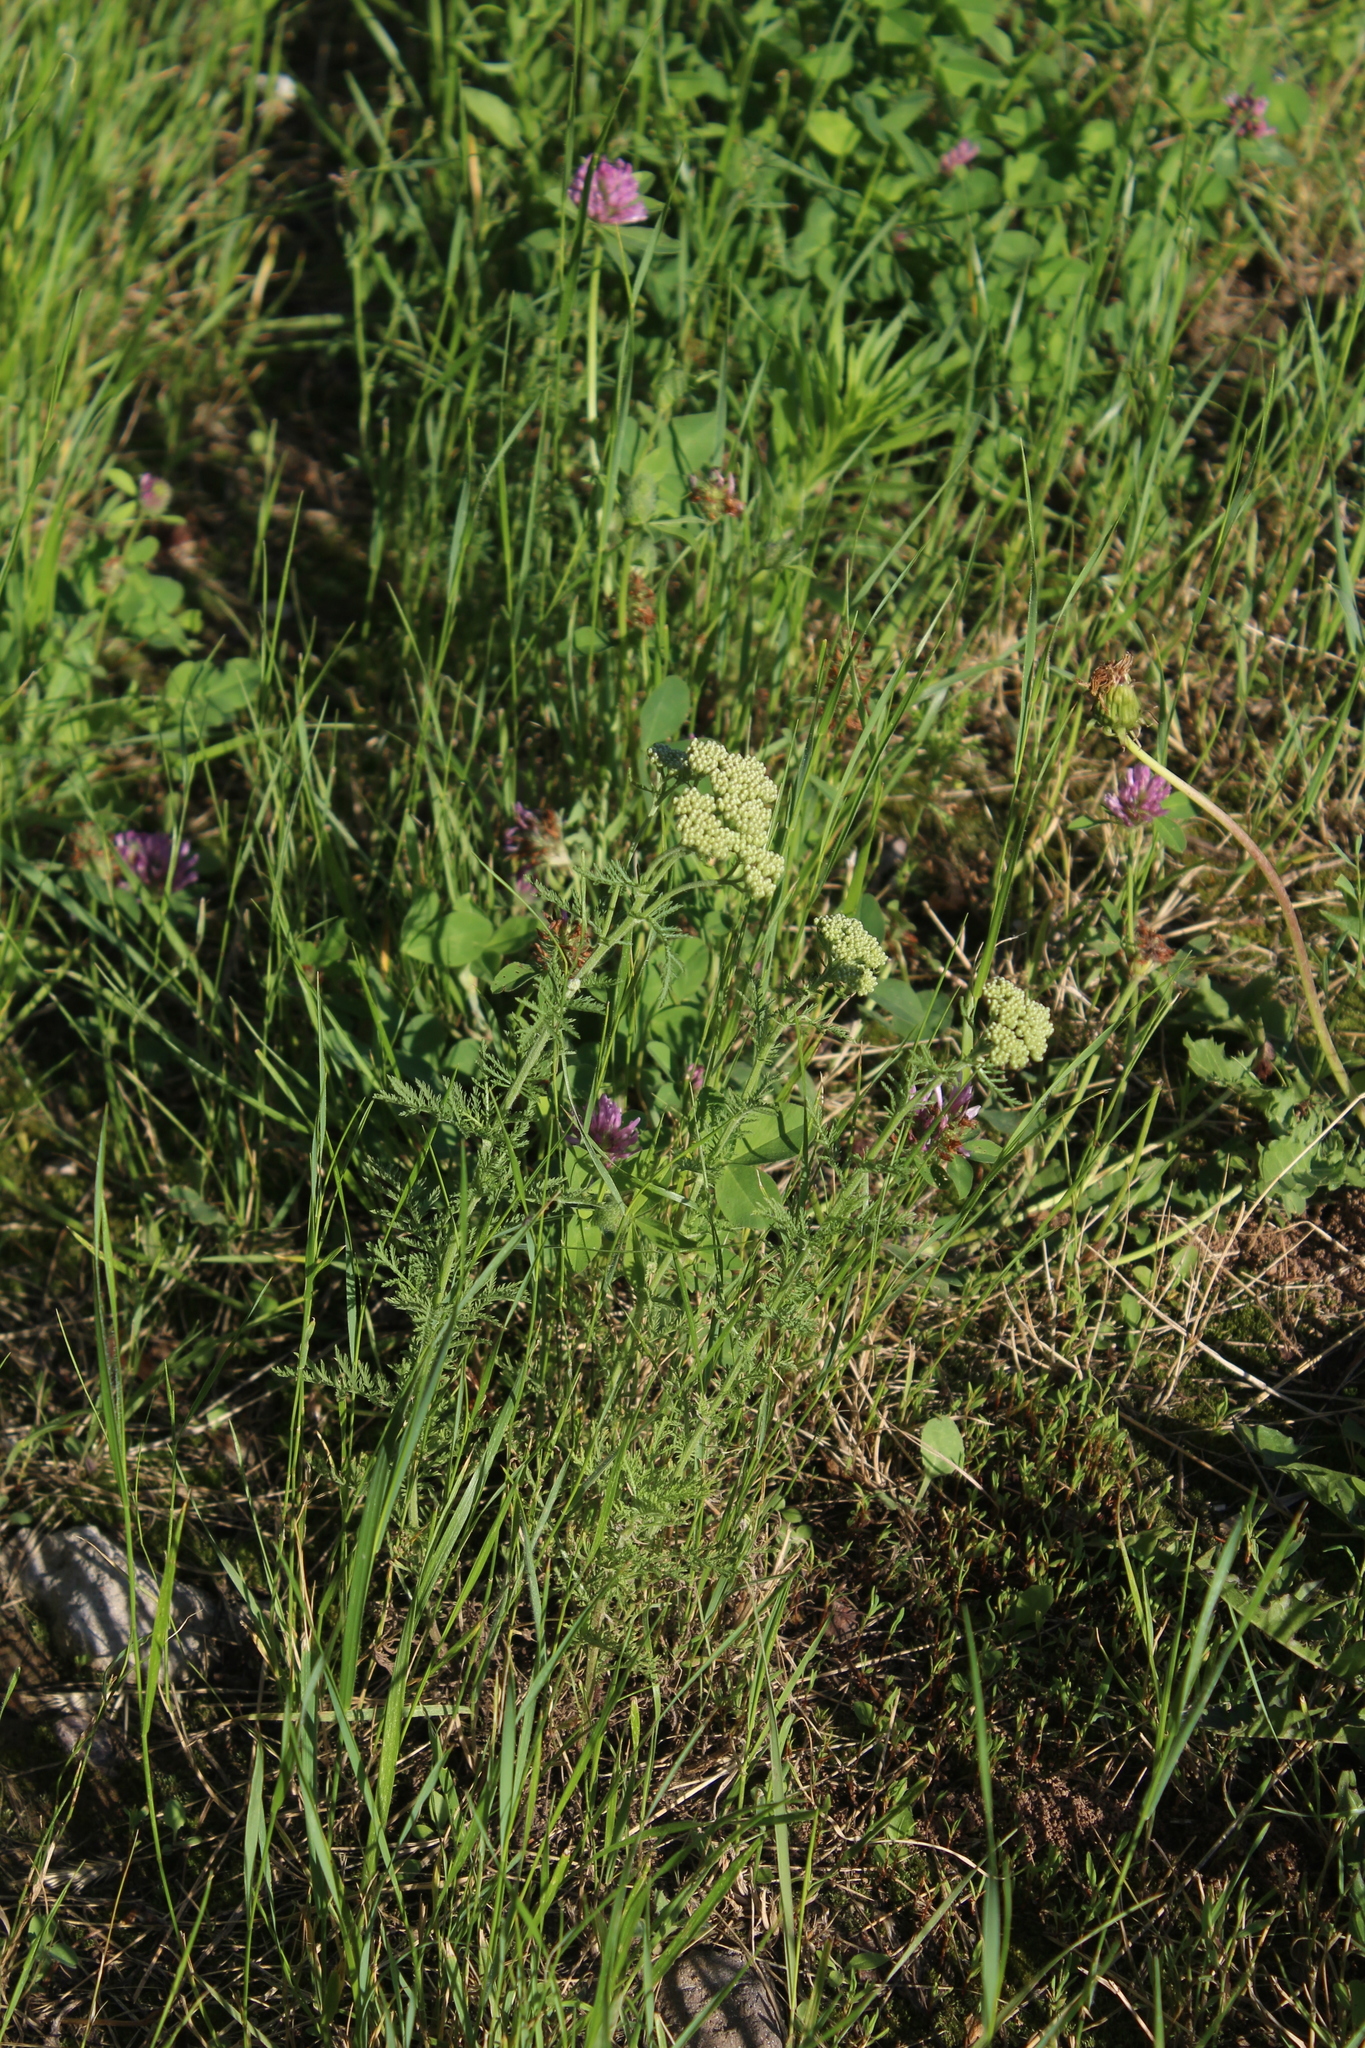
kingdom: Plantae
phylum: Tracheophyta
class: Magnoliopsida
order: Asterales
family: Asteraceae
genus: Achillea
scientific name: Achillea nobilis
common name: Noble yarrow
